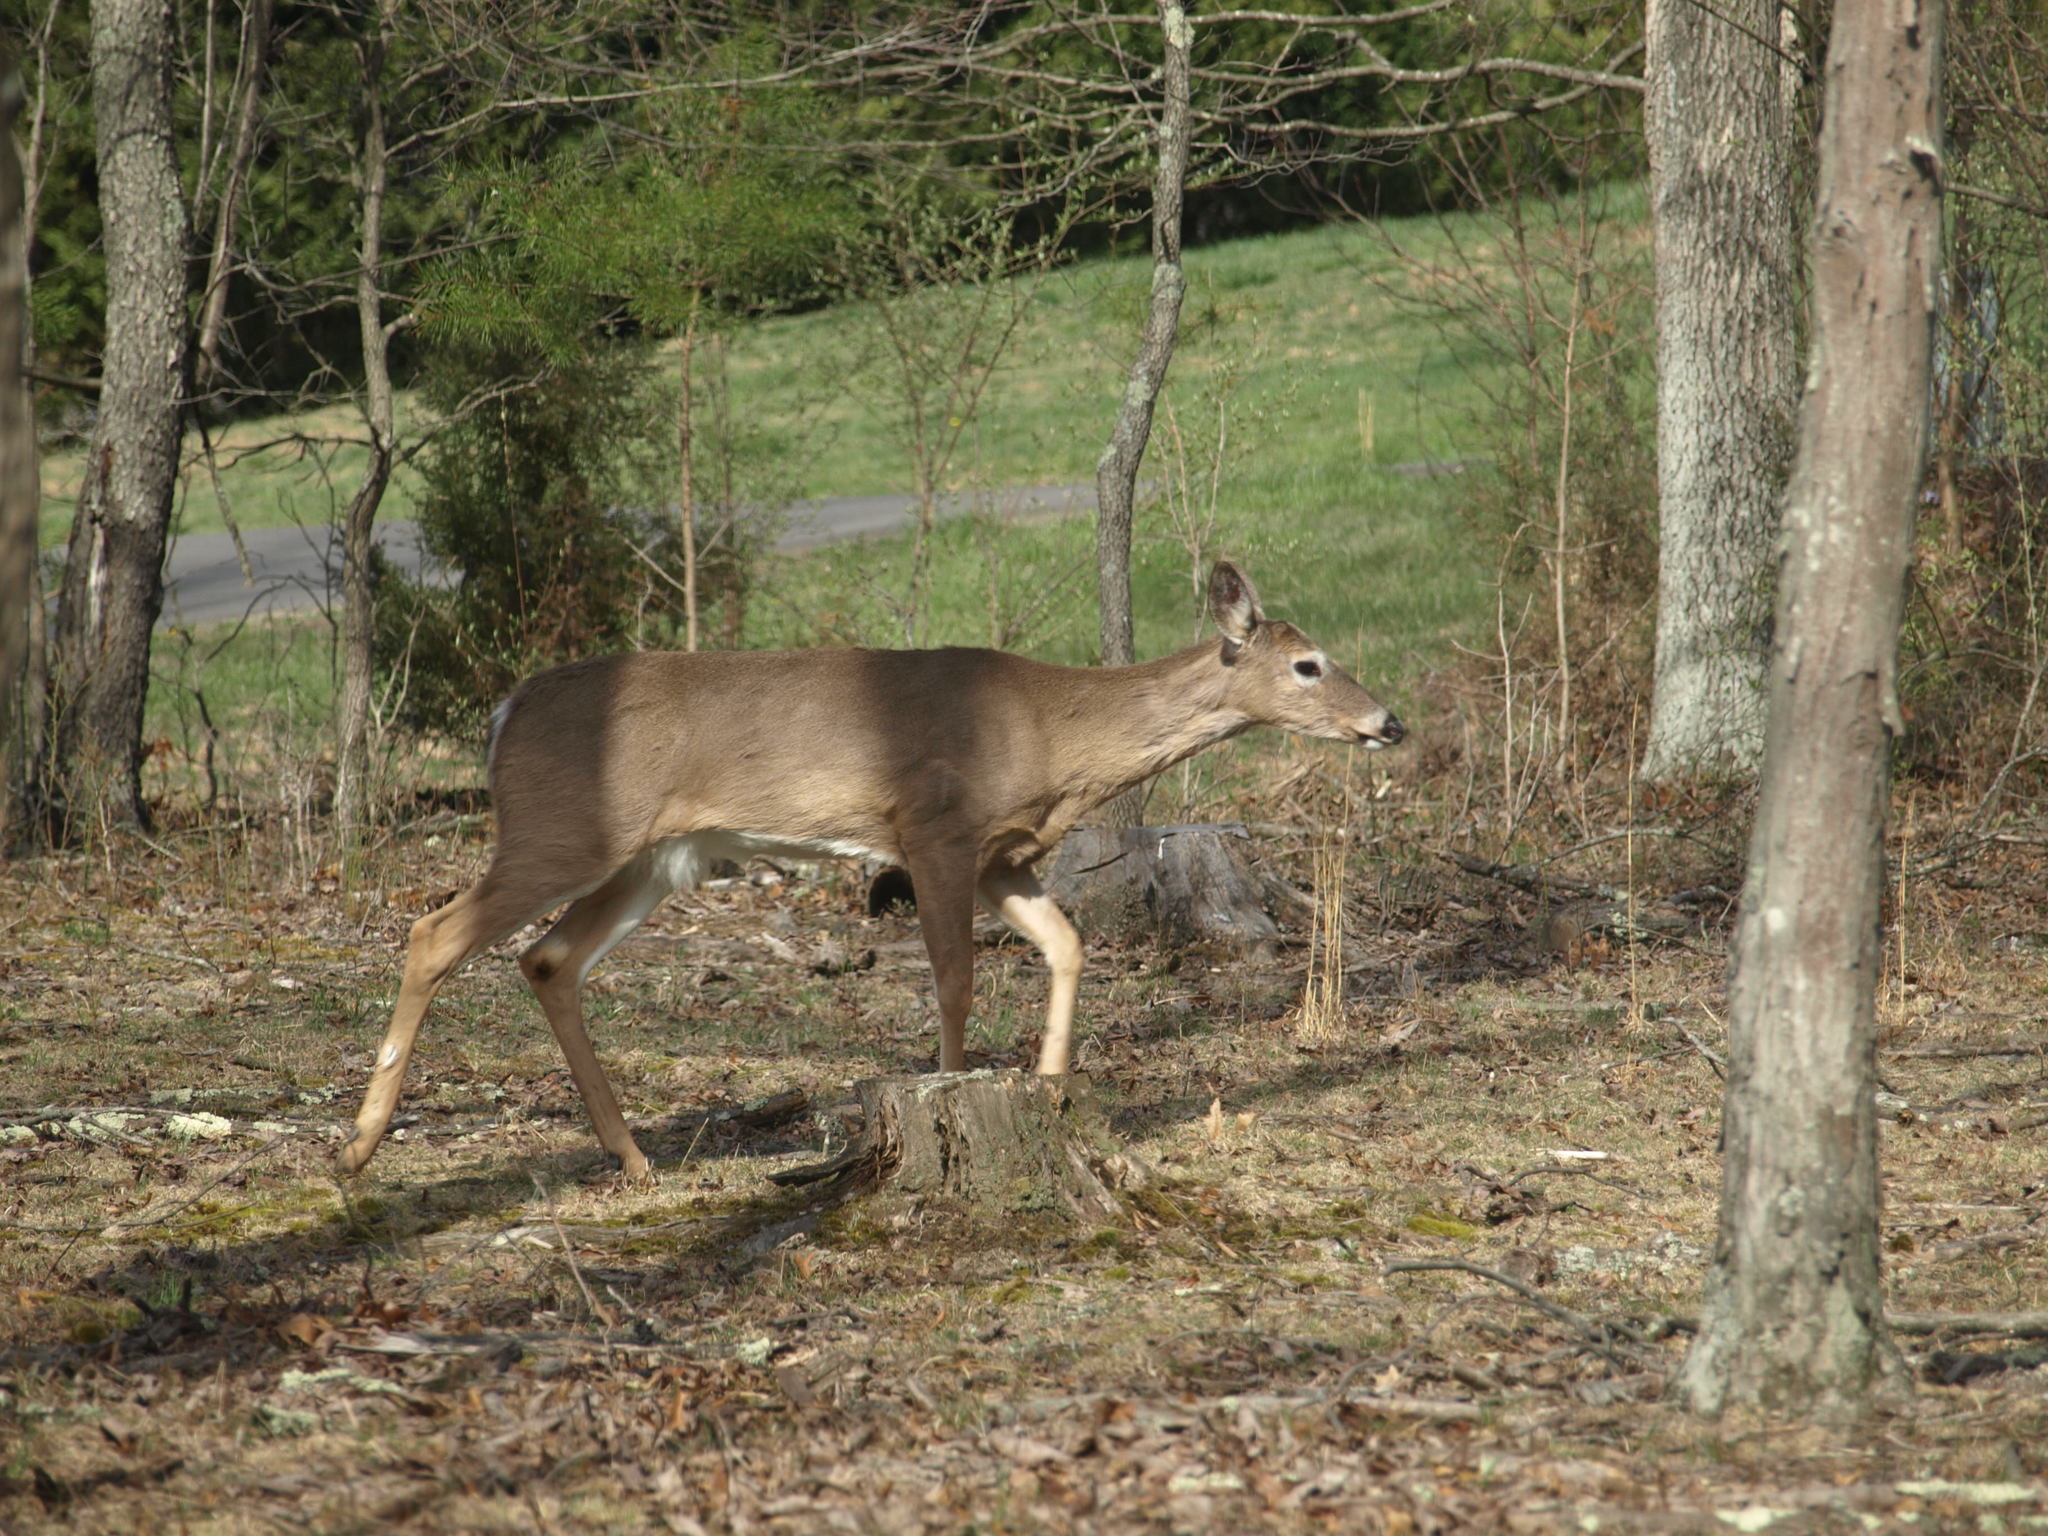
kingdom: Animalia
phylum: Chordata
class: Mammalia
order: Artiodactyla
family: Cervidae
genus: Odocoileus
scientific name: Odocoileus virginianus
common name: White-tailed deer
